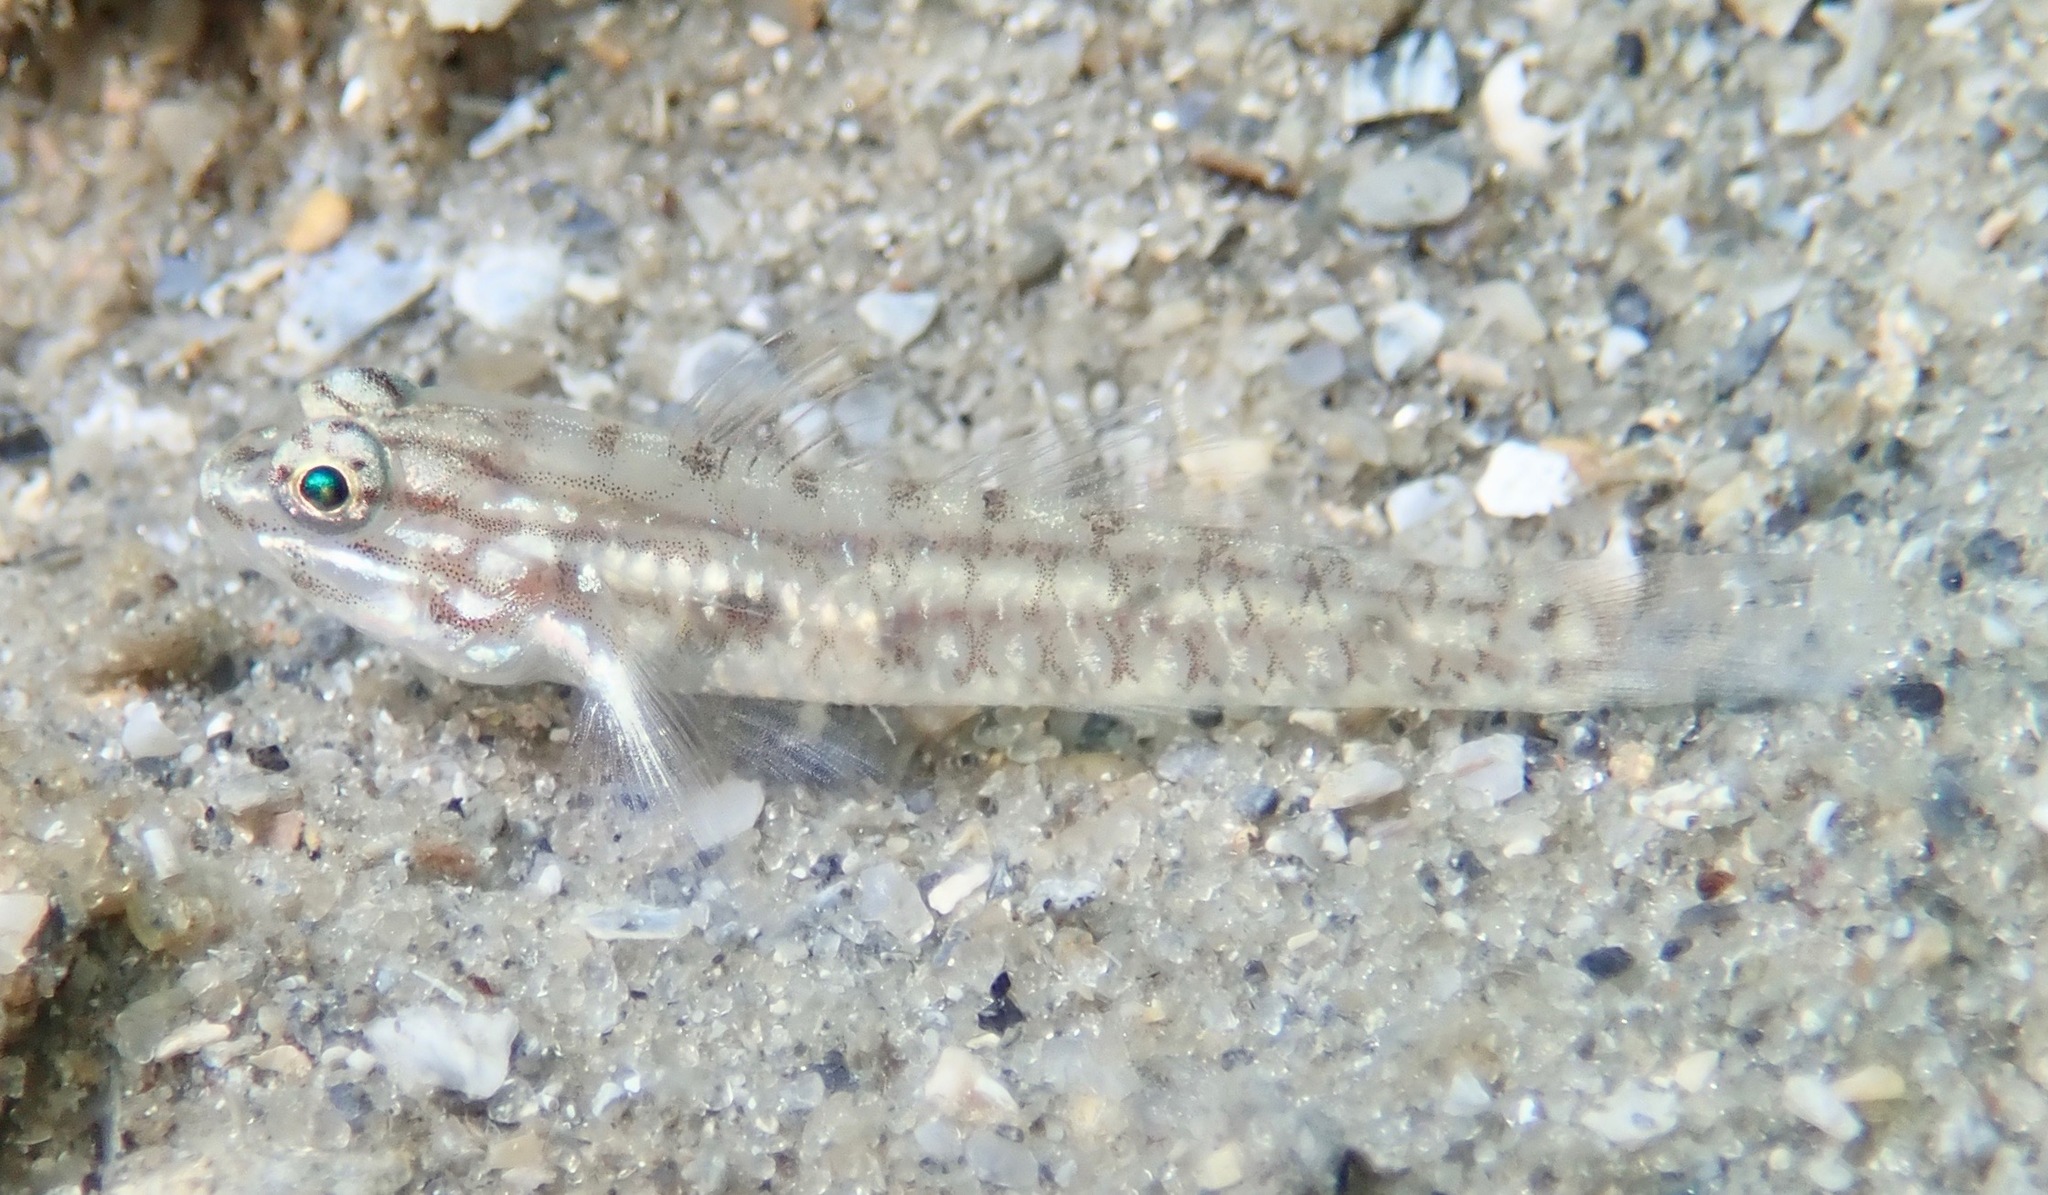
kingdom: Animalia
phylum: Chordata
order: Perciformes
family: Gobiidae
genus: Coryphopterus
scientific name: Coryphopterus glaucofraenum
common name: Bridled goby
